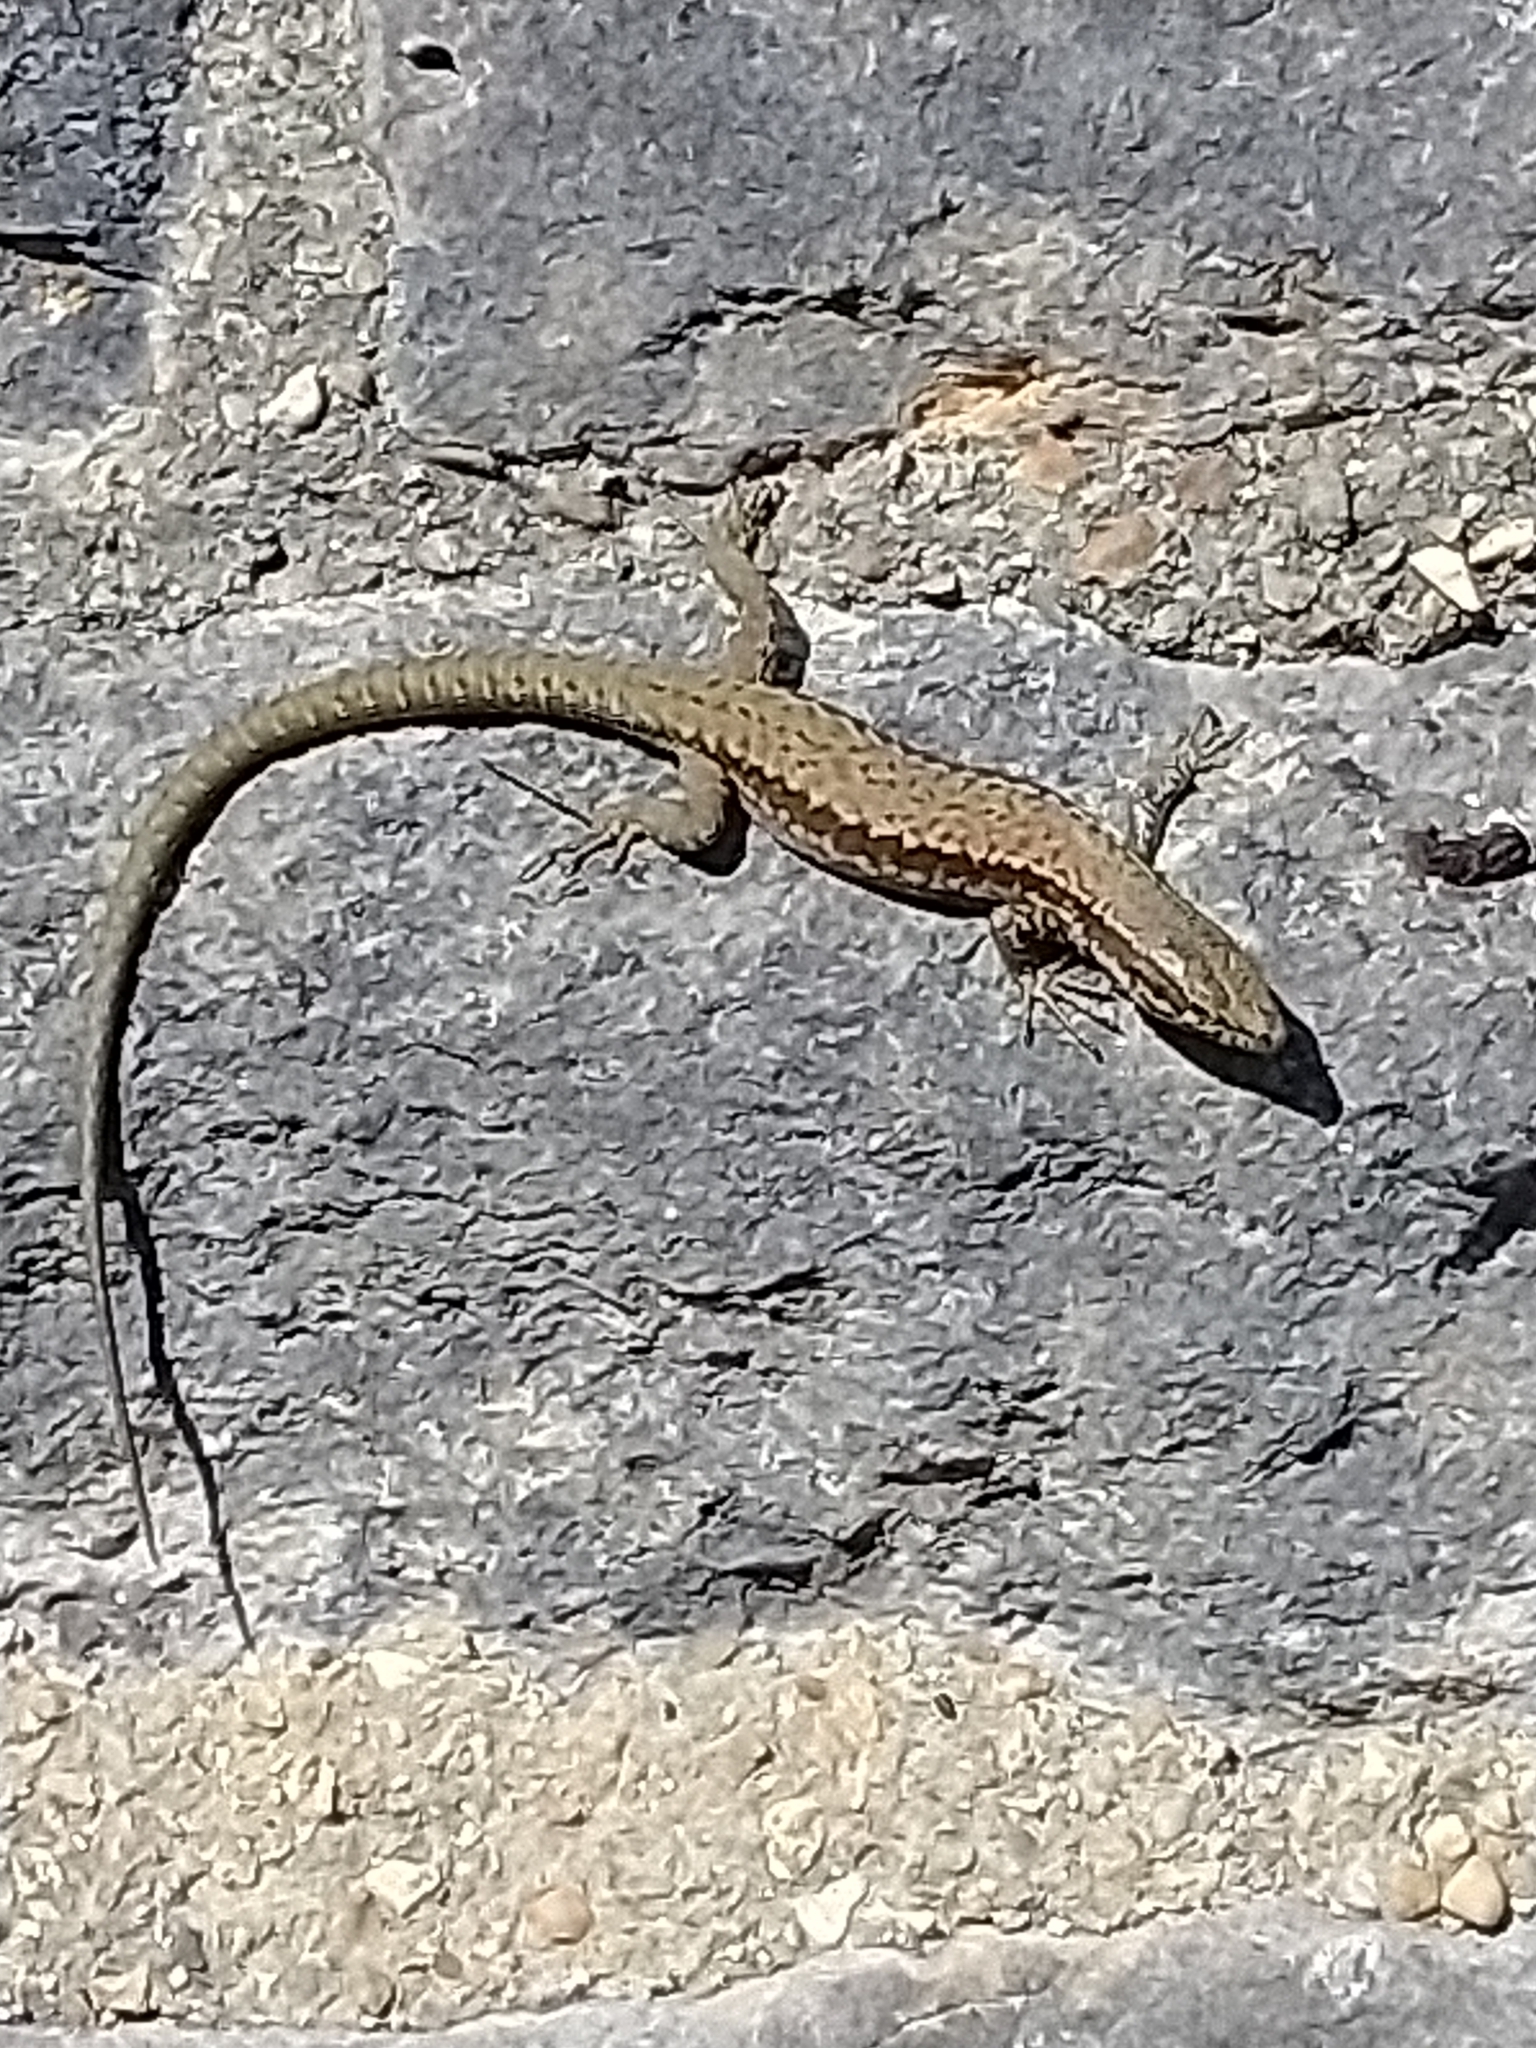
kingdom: Animalia
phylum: Chordata
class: Squamata
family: Lacertidae
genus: Podarcis
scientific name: Podarcis muralis
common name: Common wall lizard
